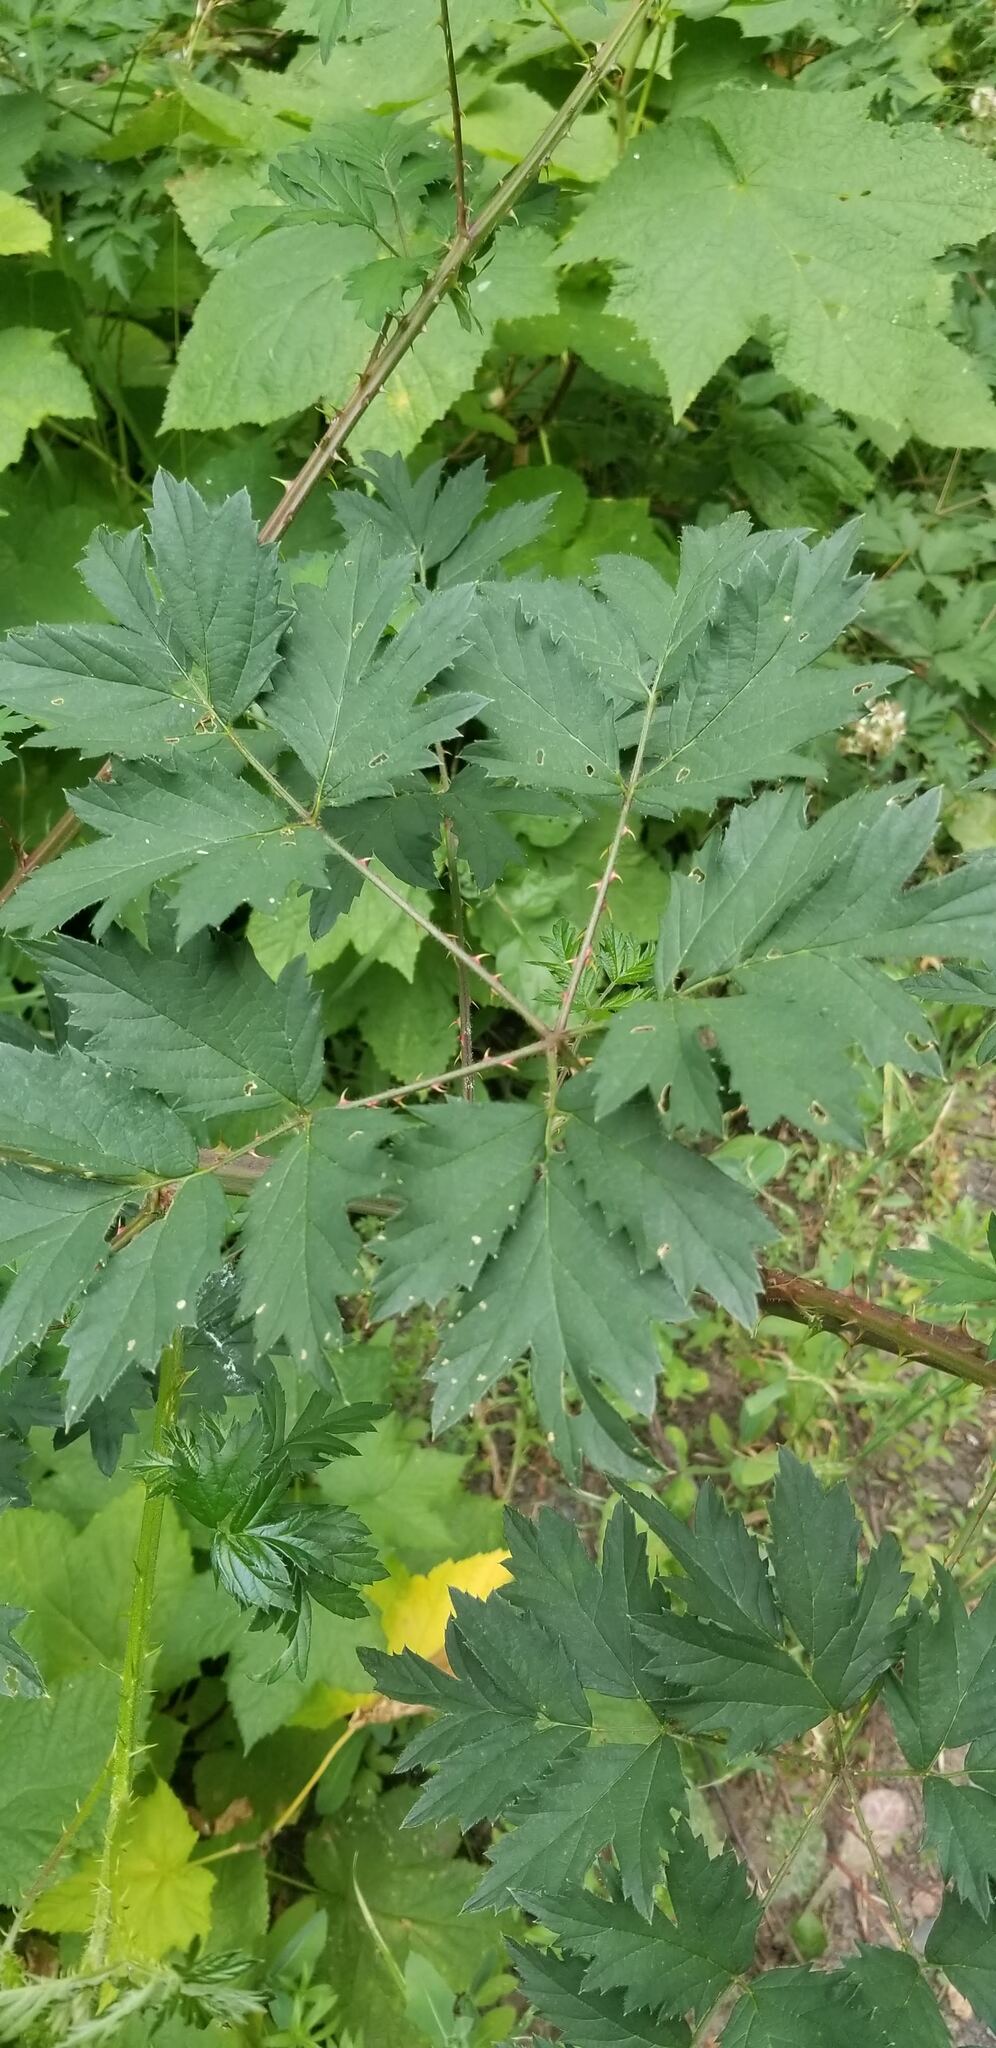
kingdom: Plantae
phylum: Tracheophyta
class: Magnoliopsida
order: Rosales
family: Rosaceae
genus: Rubus
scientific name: Rubus laciniatus
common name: Evergreen blackberry
